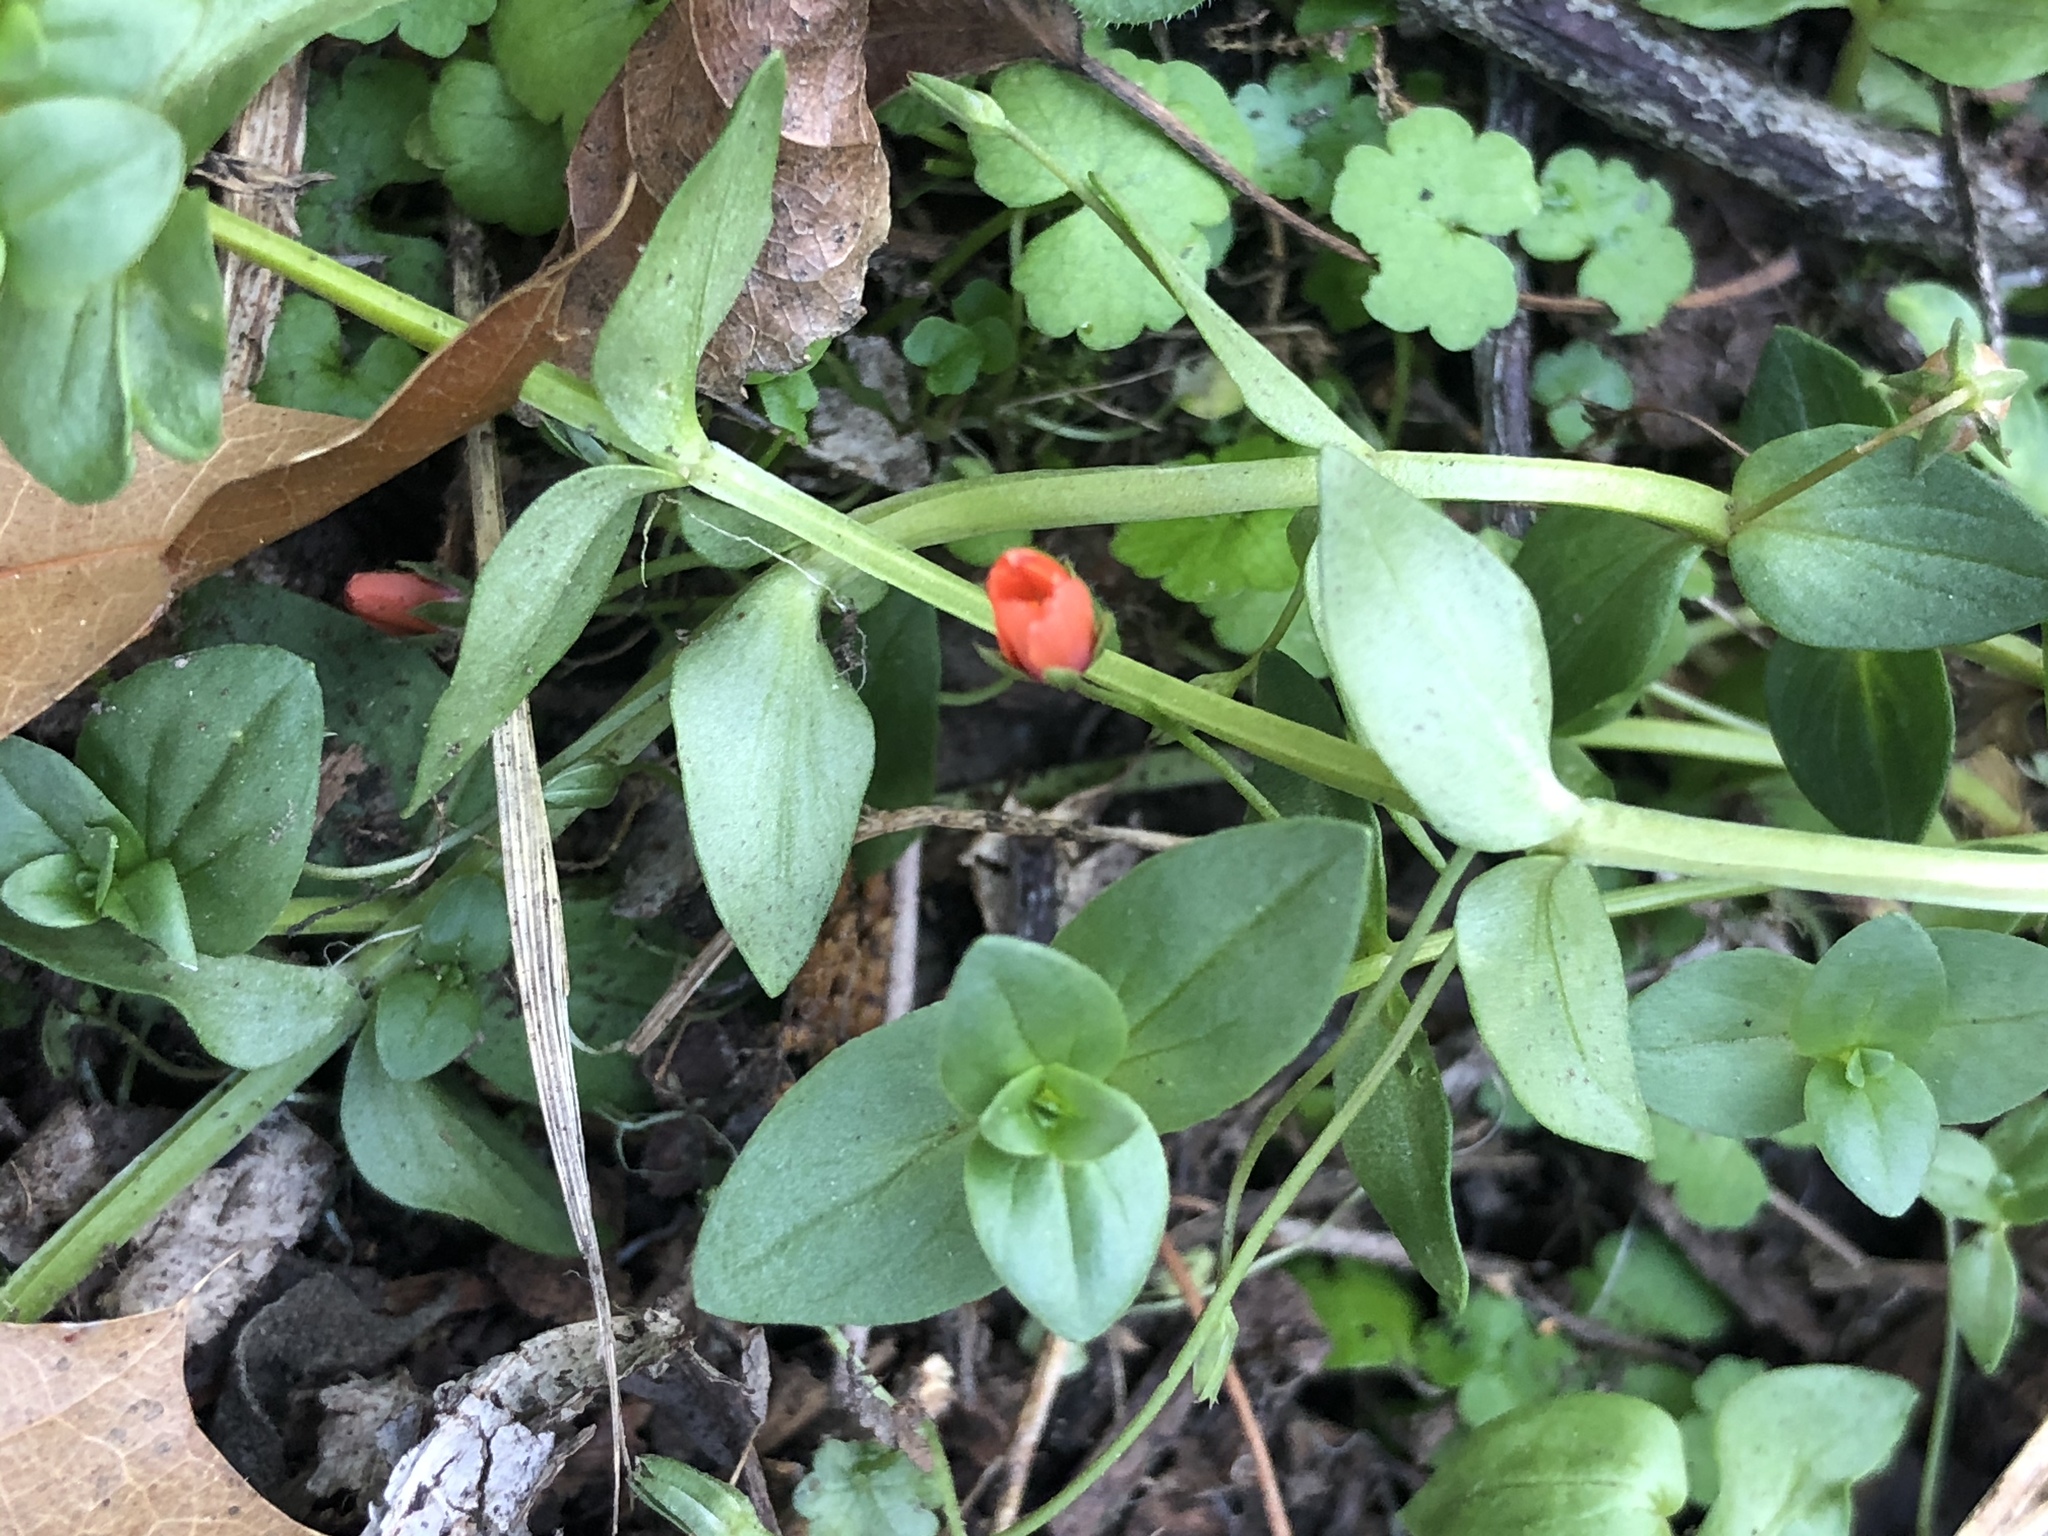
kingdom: Plantae
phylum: Tracheophyta
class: Magnoliopsida
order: Ericales
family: Primulaceae
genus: Lysimachia
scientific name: Lysimachia arvensis
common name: Scarlet pimpernel
